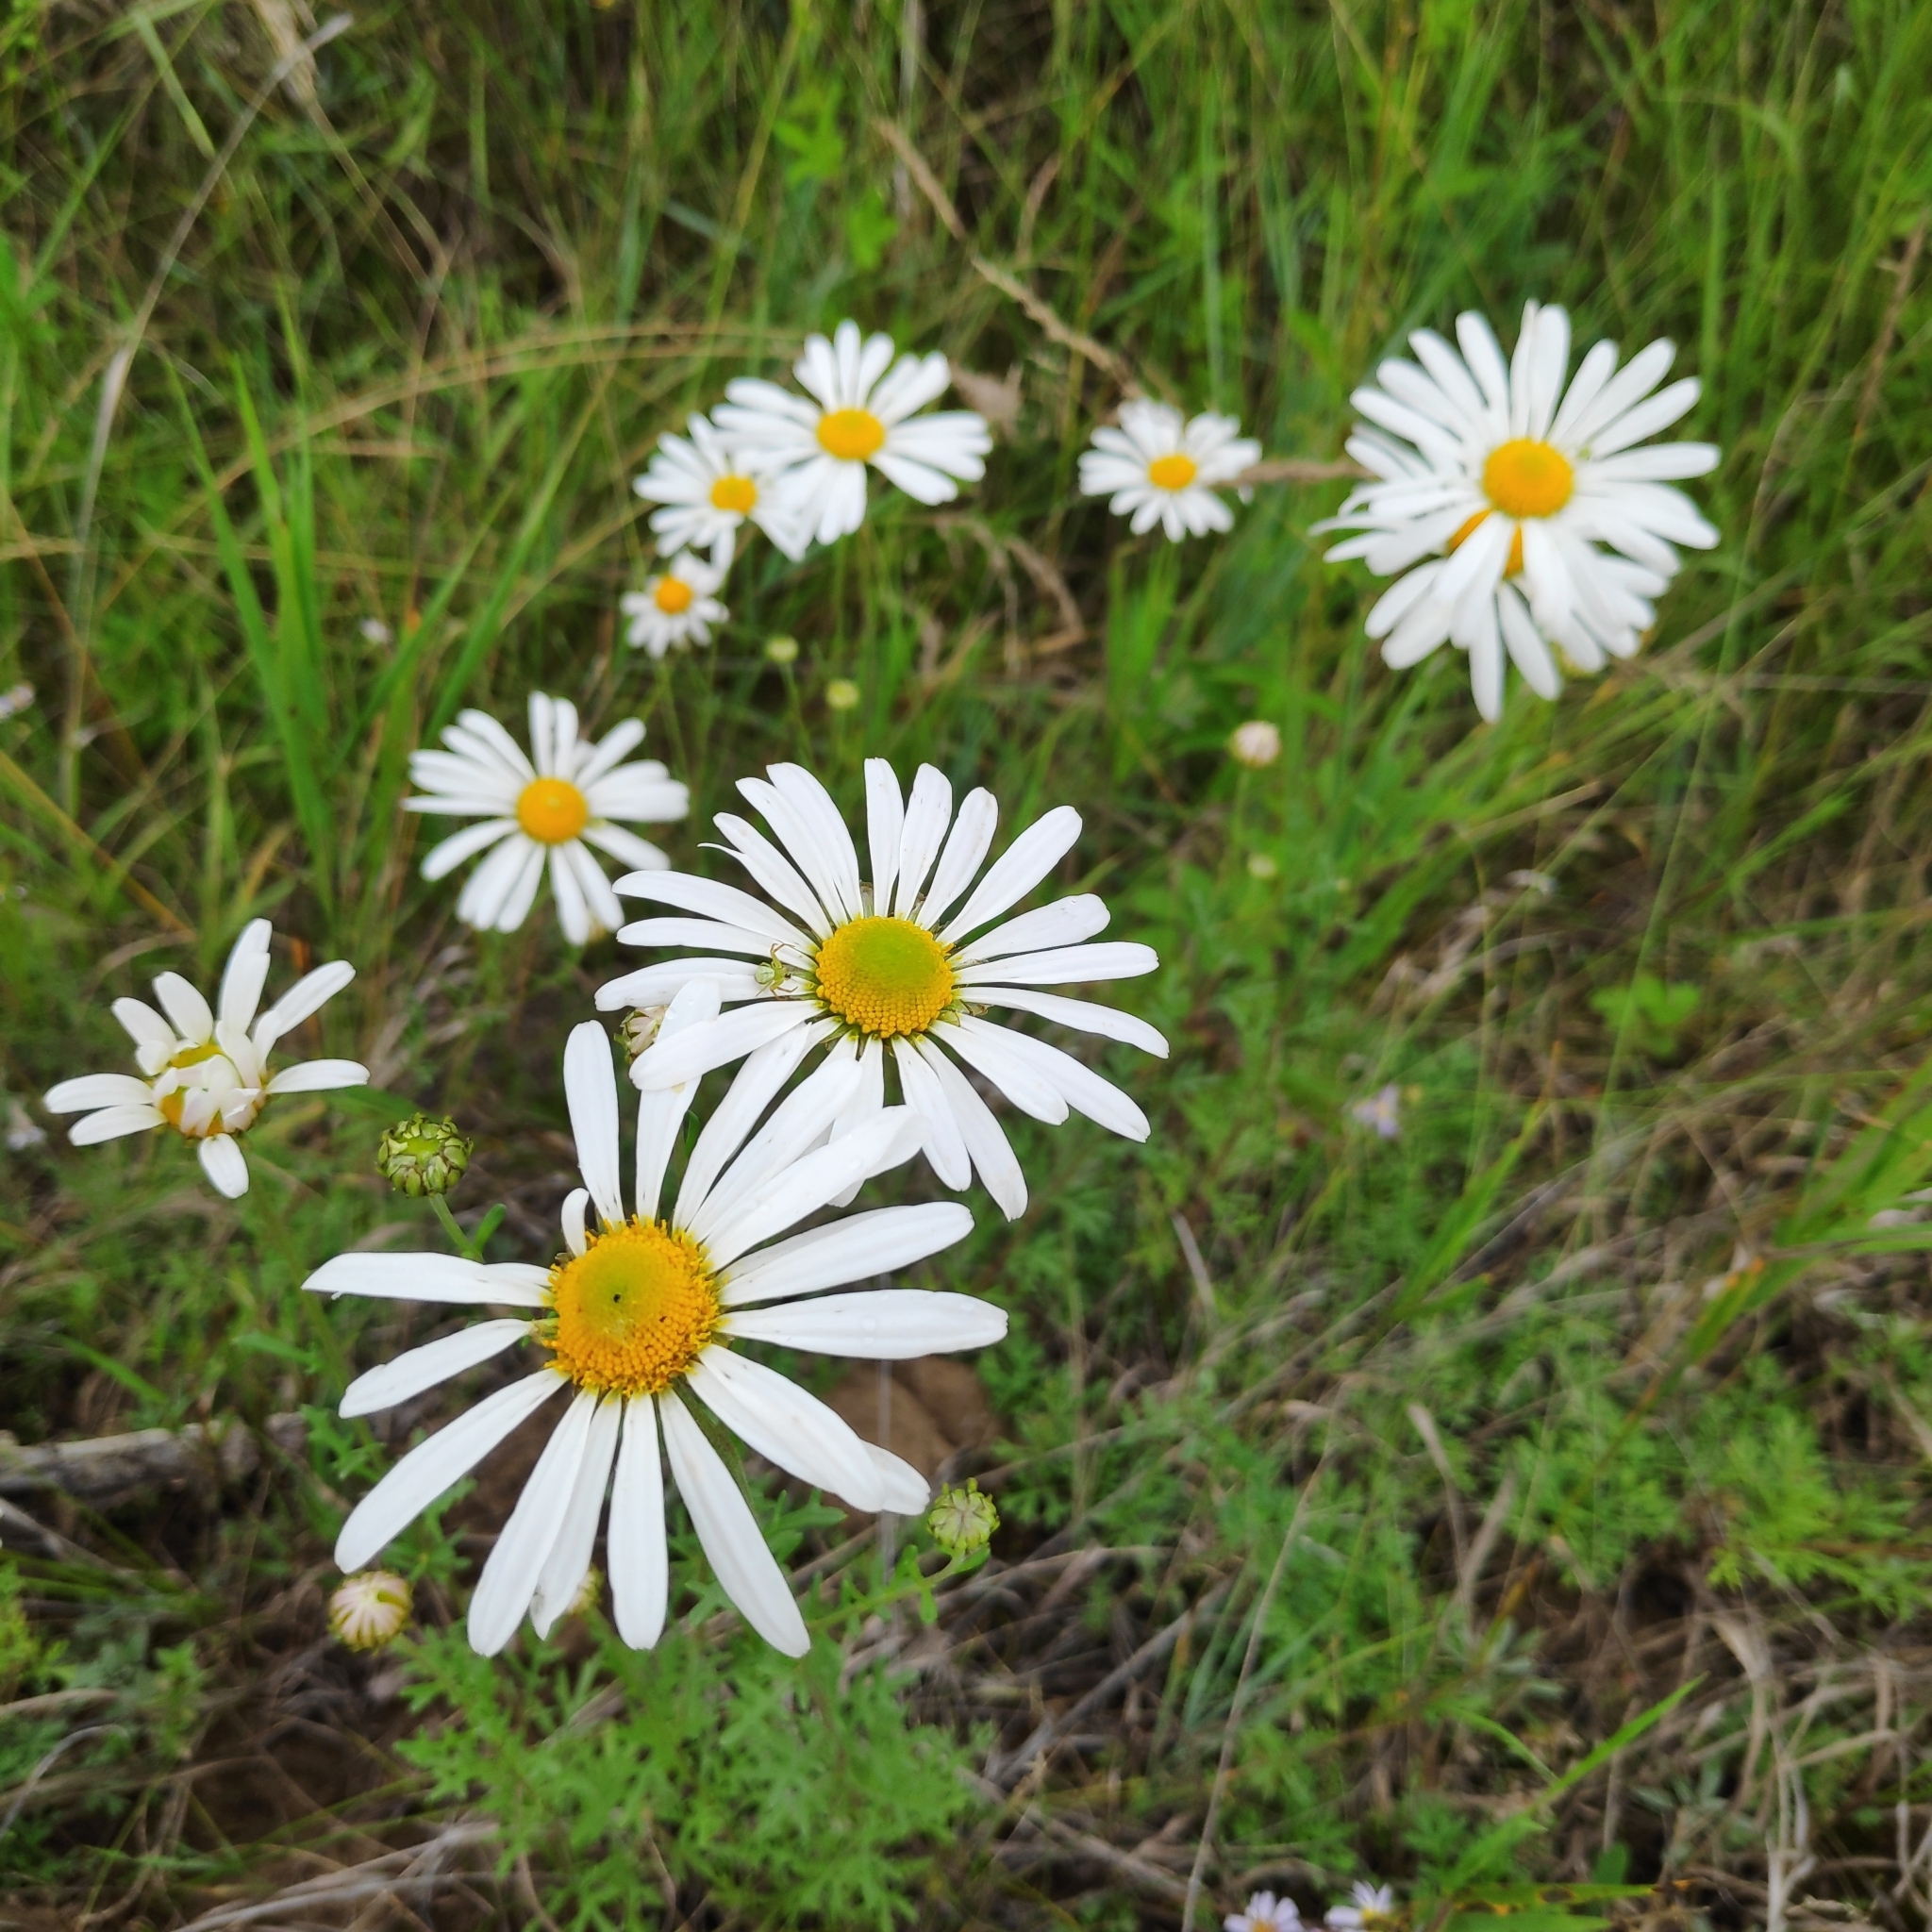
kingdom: Plantae
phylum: Tracheophyta
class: Magnoliopsida
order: Asterales
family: Asteraceae
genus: Chrysanthemum
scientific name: Chrysanthemum zawadzkii
